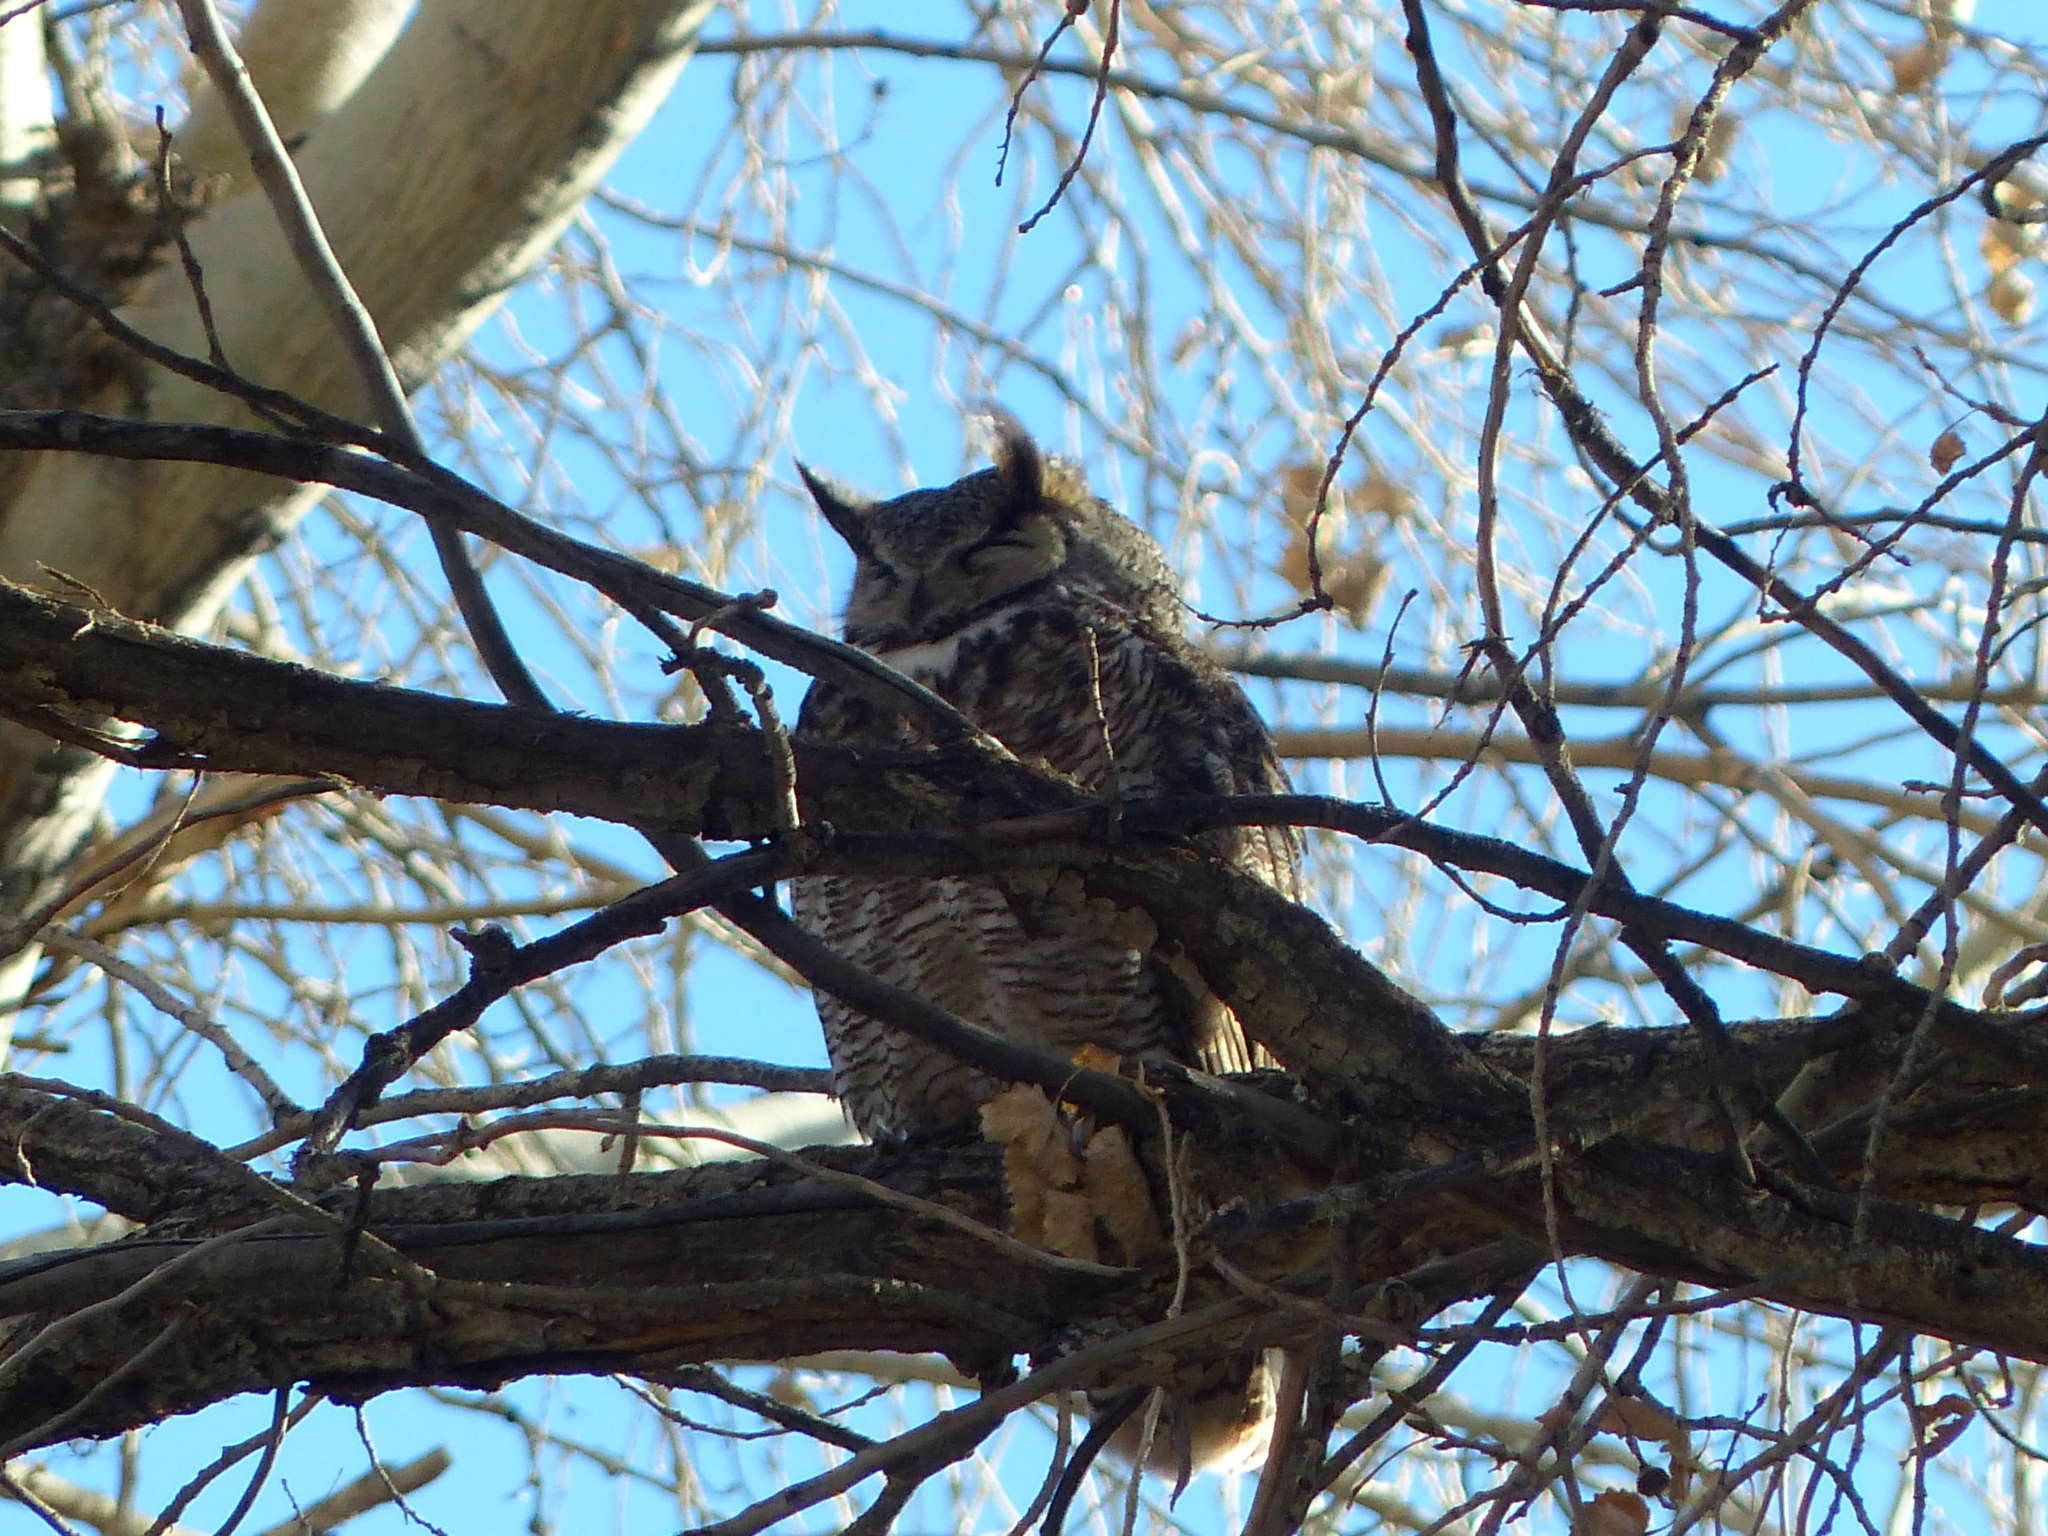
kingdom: Animalia
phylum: Chordata
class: Aves
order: Strigiformes
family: Strigidae
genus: Bubo
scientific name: Bubo virginianus
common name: Great horned owl
